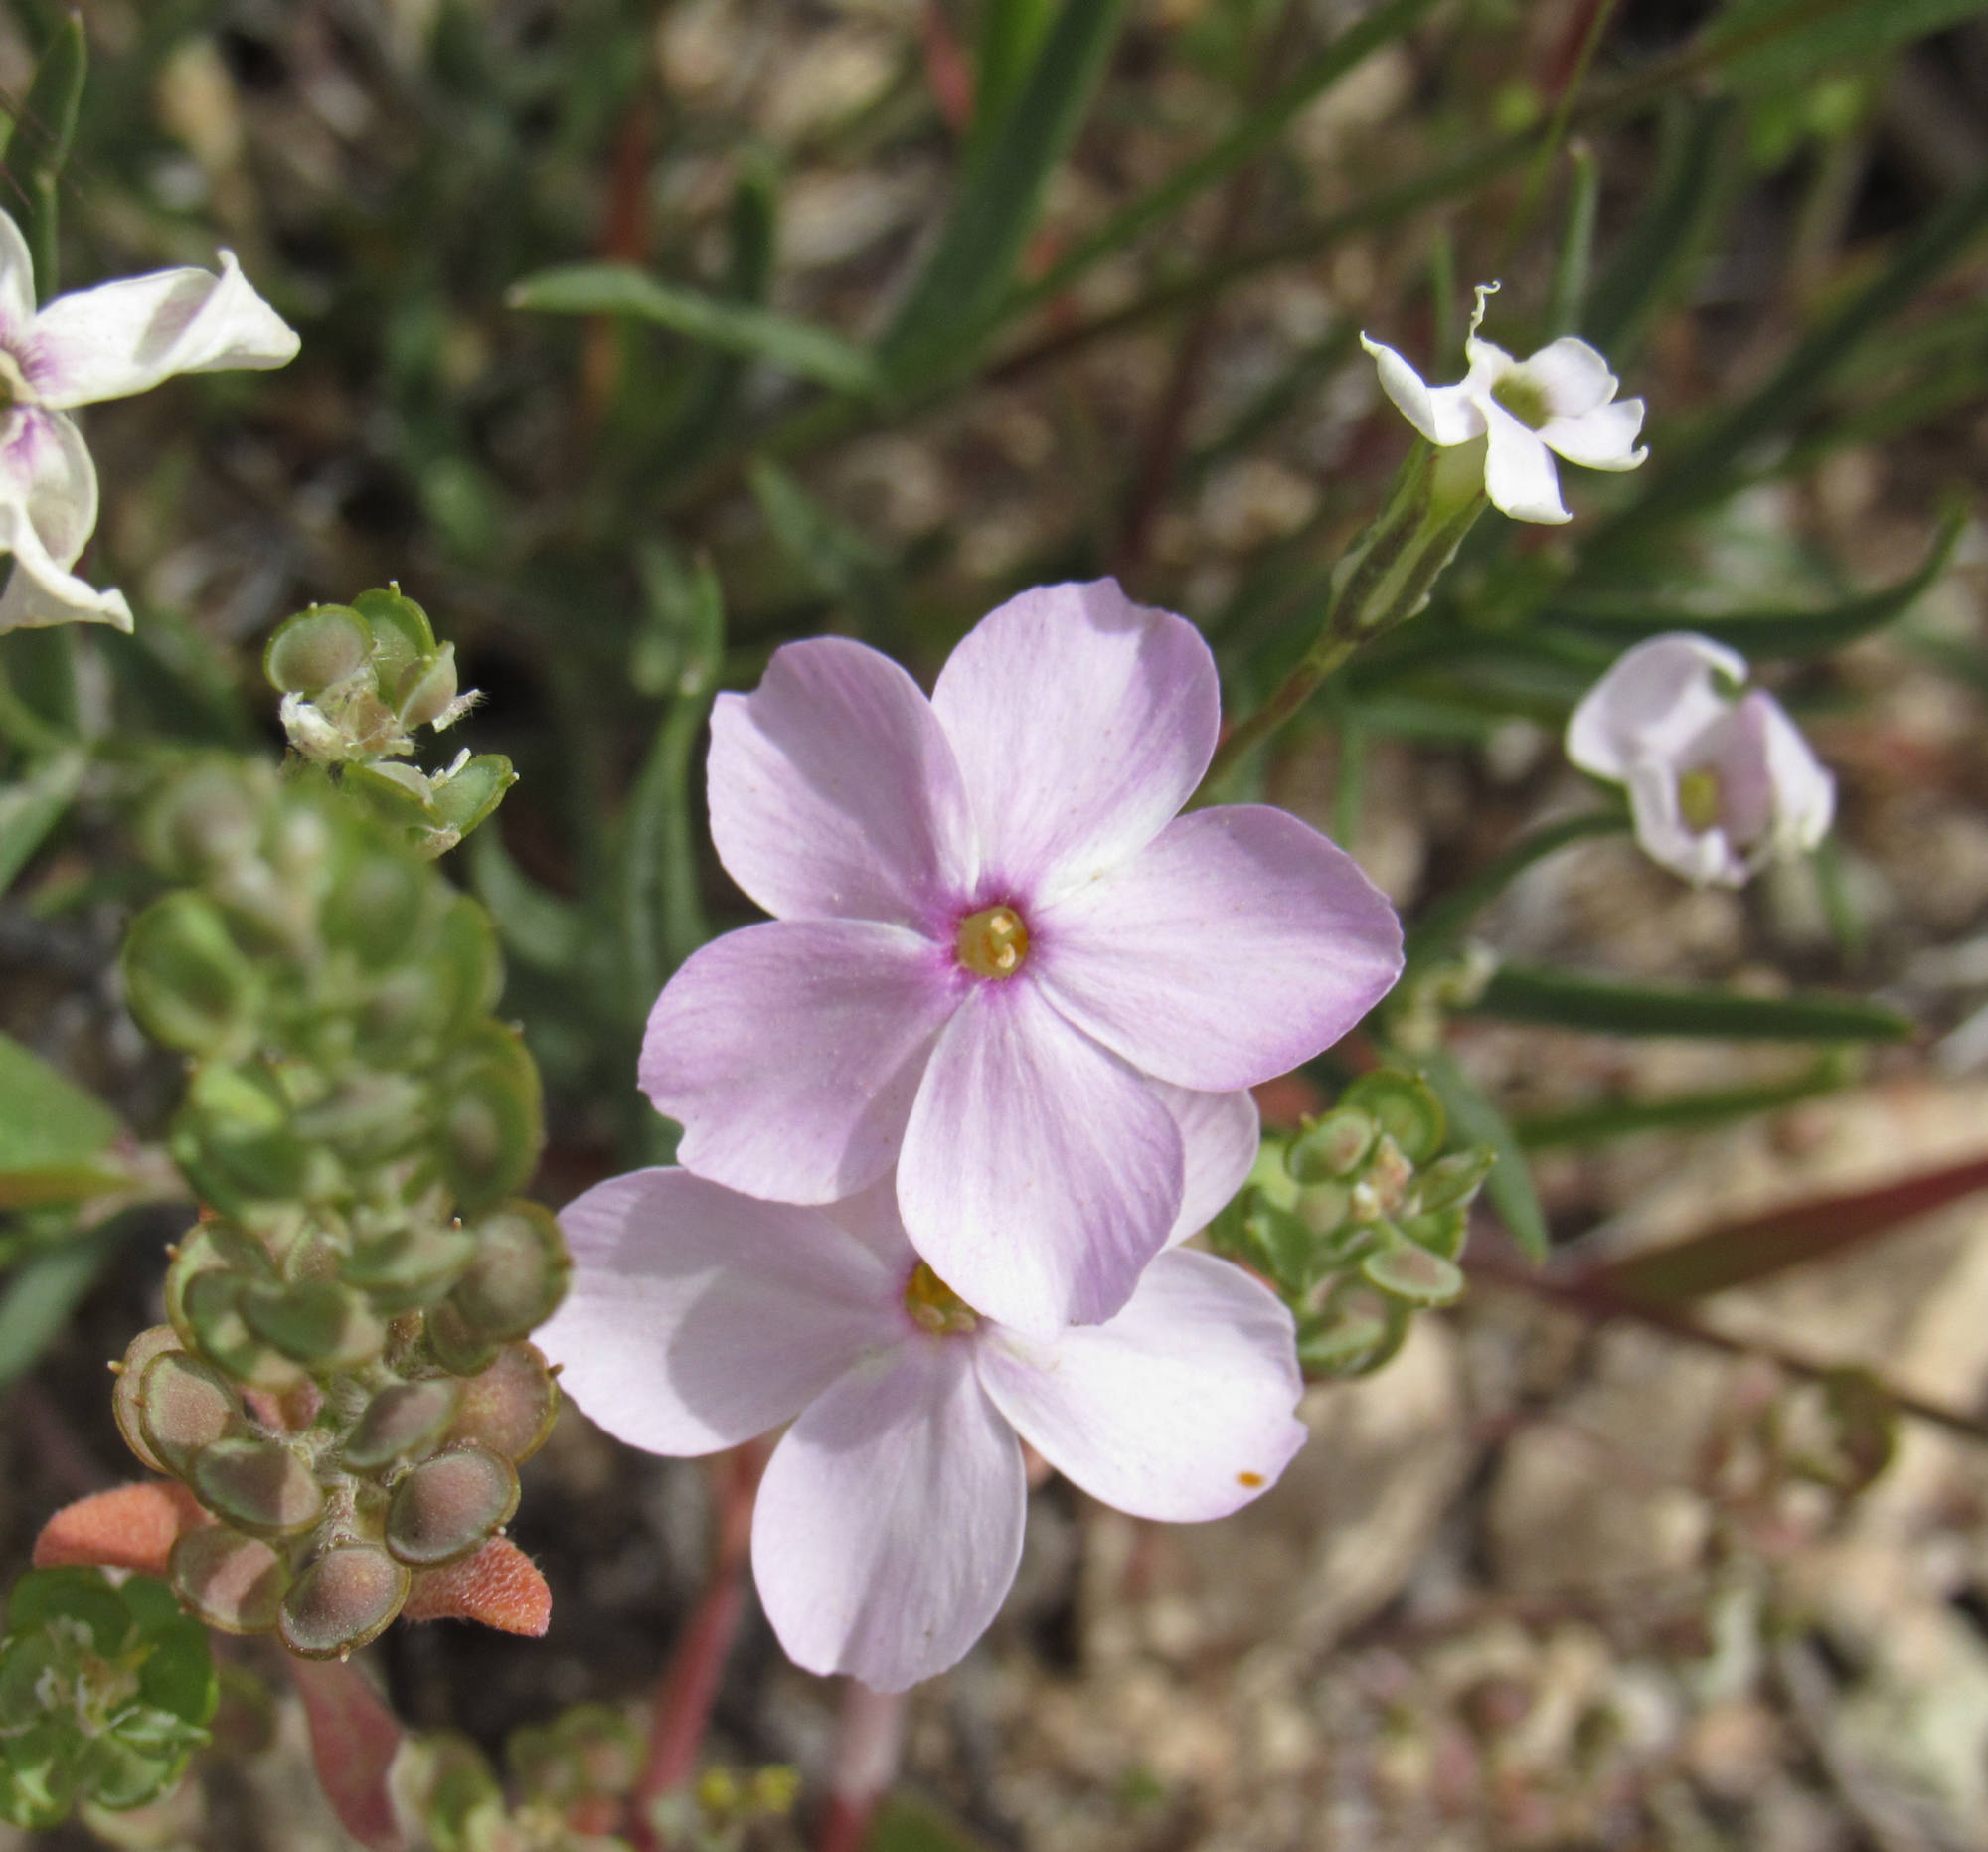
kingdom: Plantae
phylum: Tracheophyta
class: Magnoliopsida
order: Ericales
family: Polemoniaceae
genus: Phlox
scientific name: Phlox longifolia
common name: Longleaf phlox
